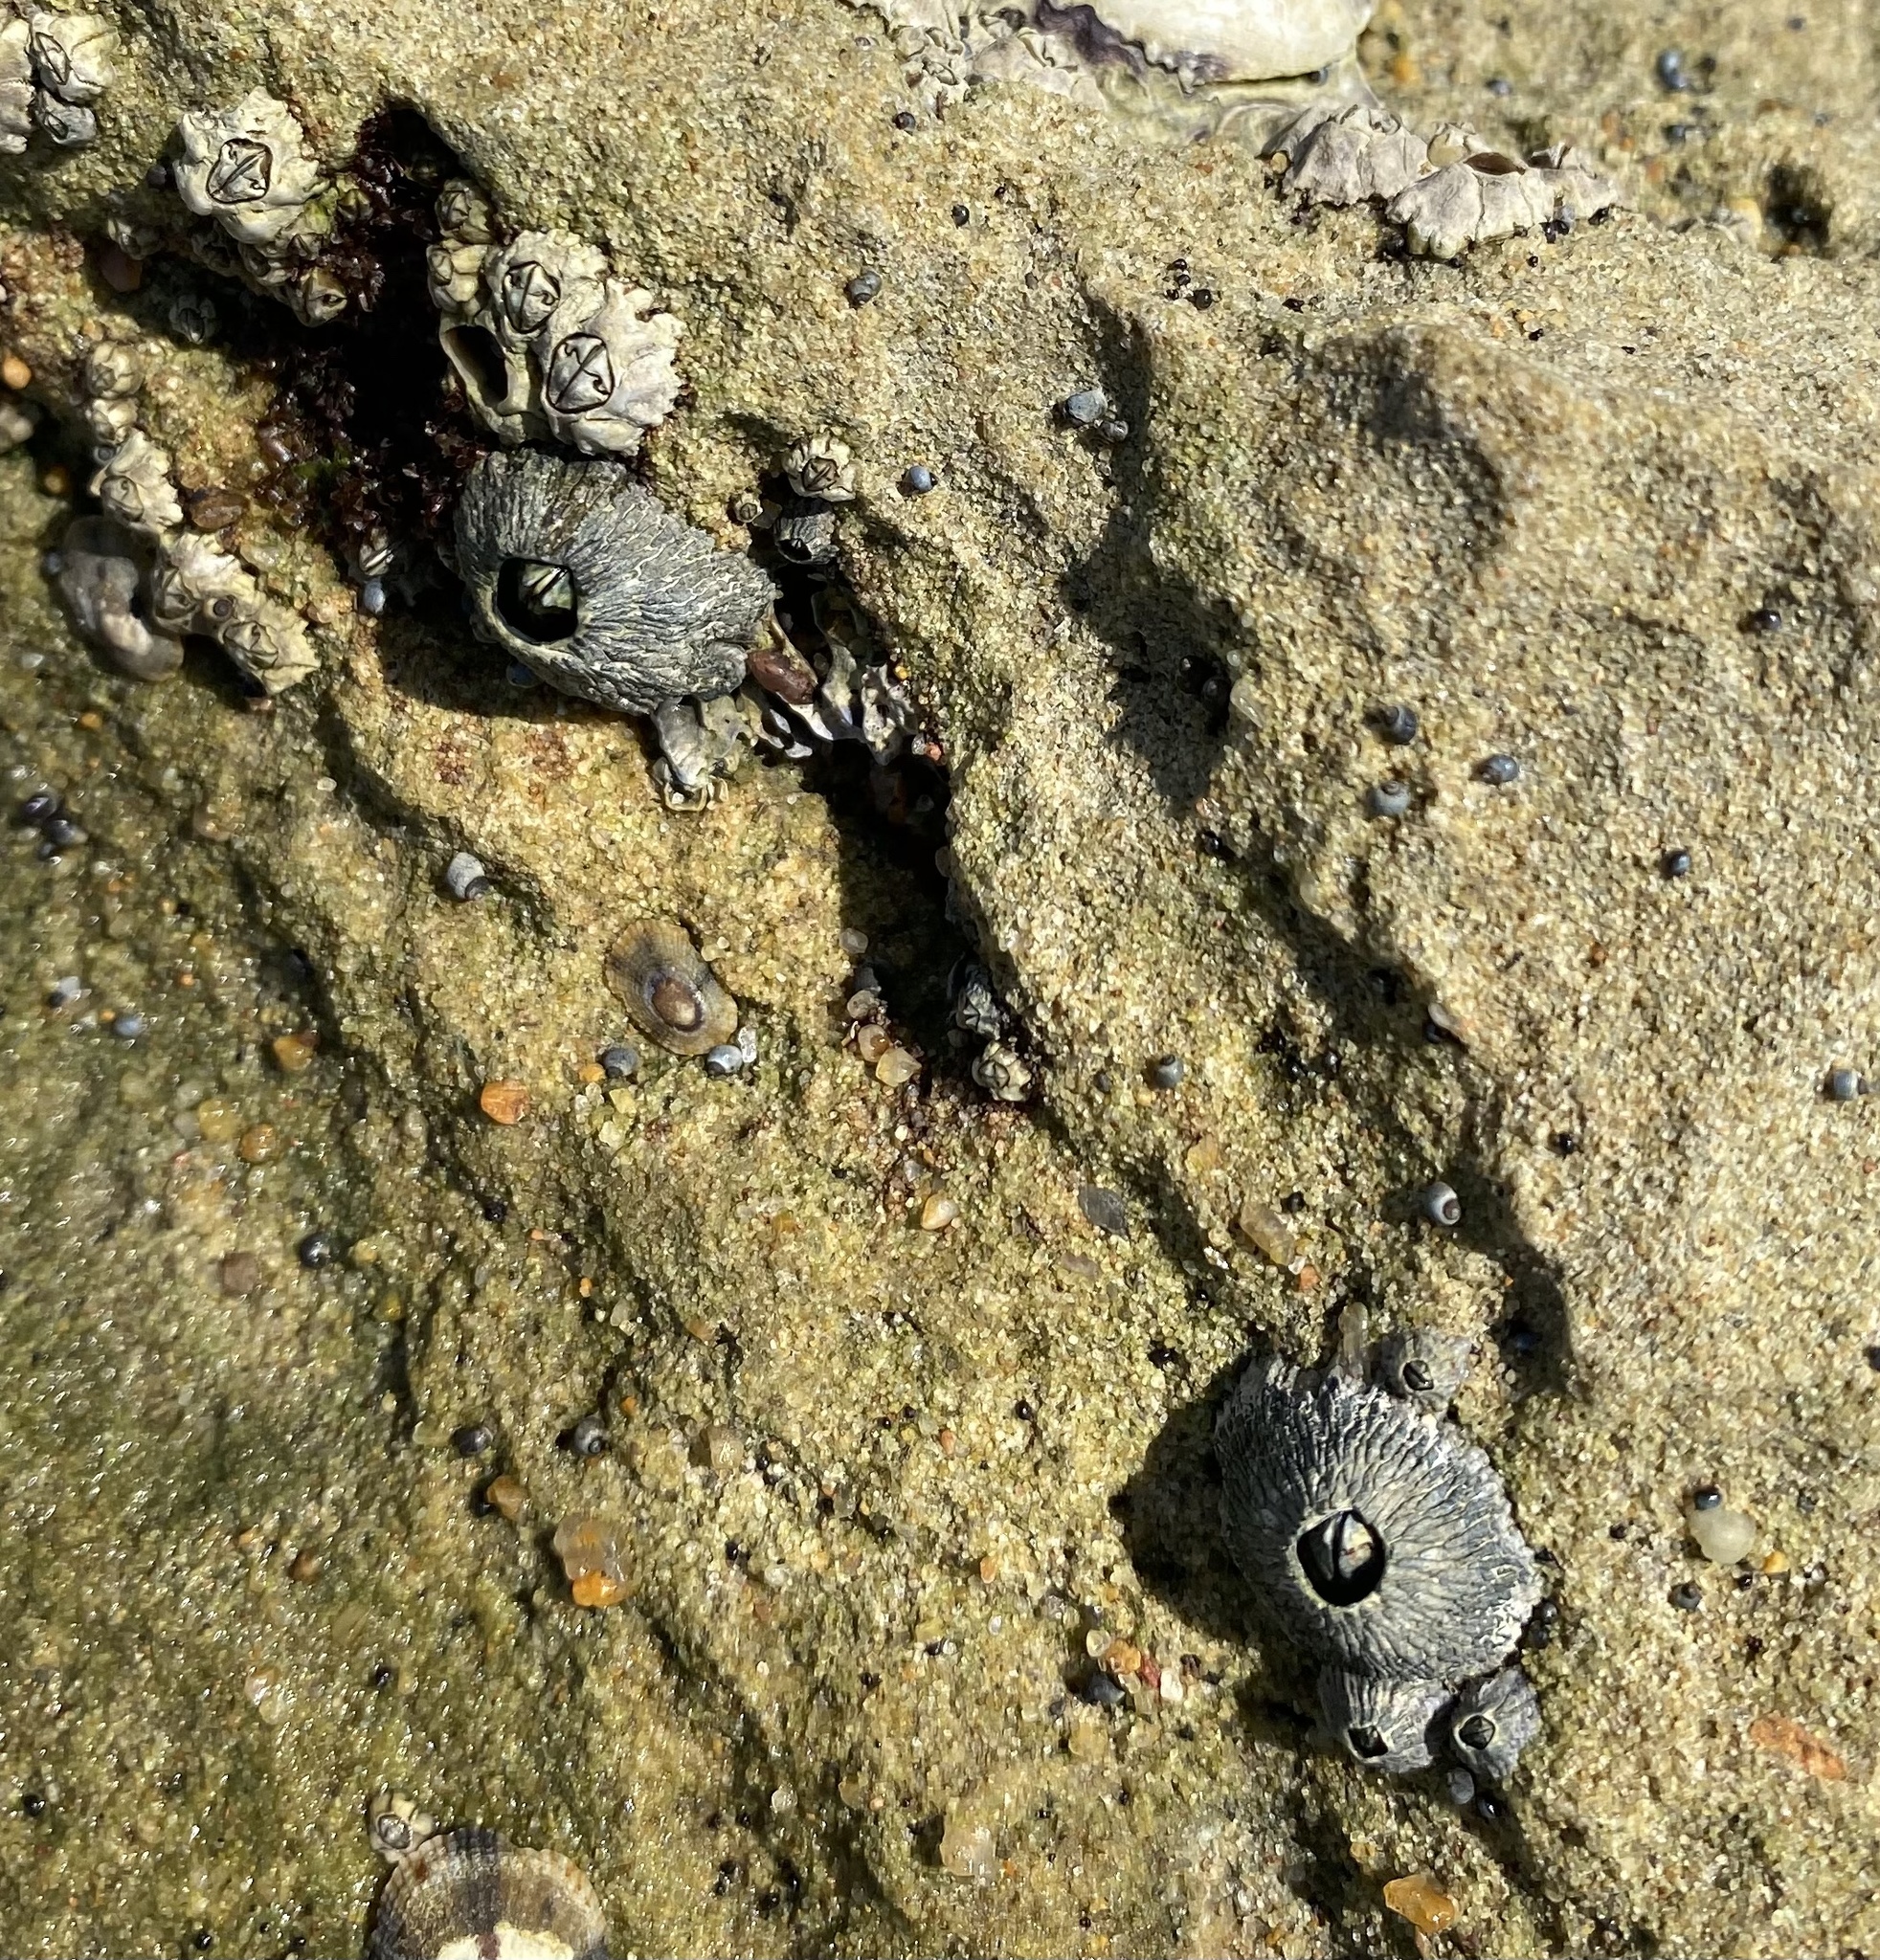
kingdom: Animalia
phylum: Arthropoda
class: Maxillopoda
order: Sessilia
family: Tetraclitidae
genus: Tetraclita
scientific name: Tetraclita serrata
